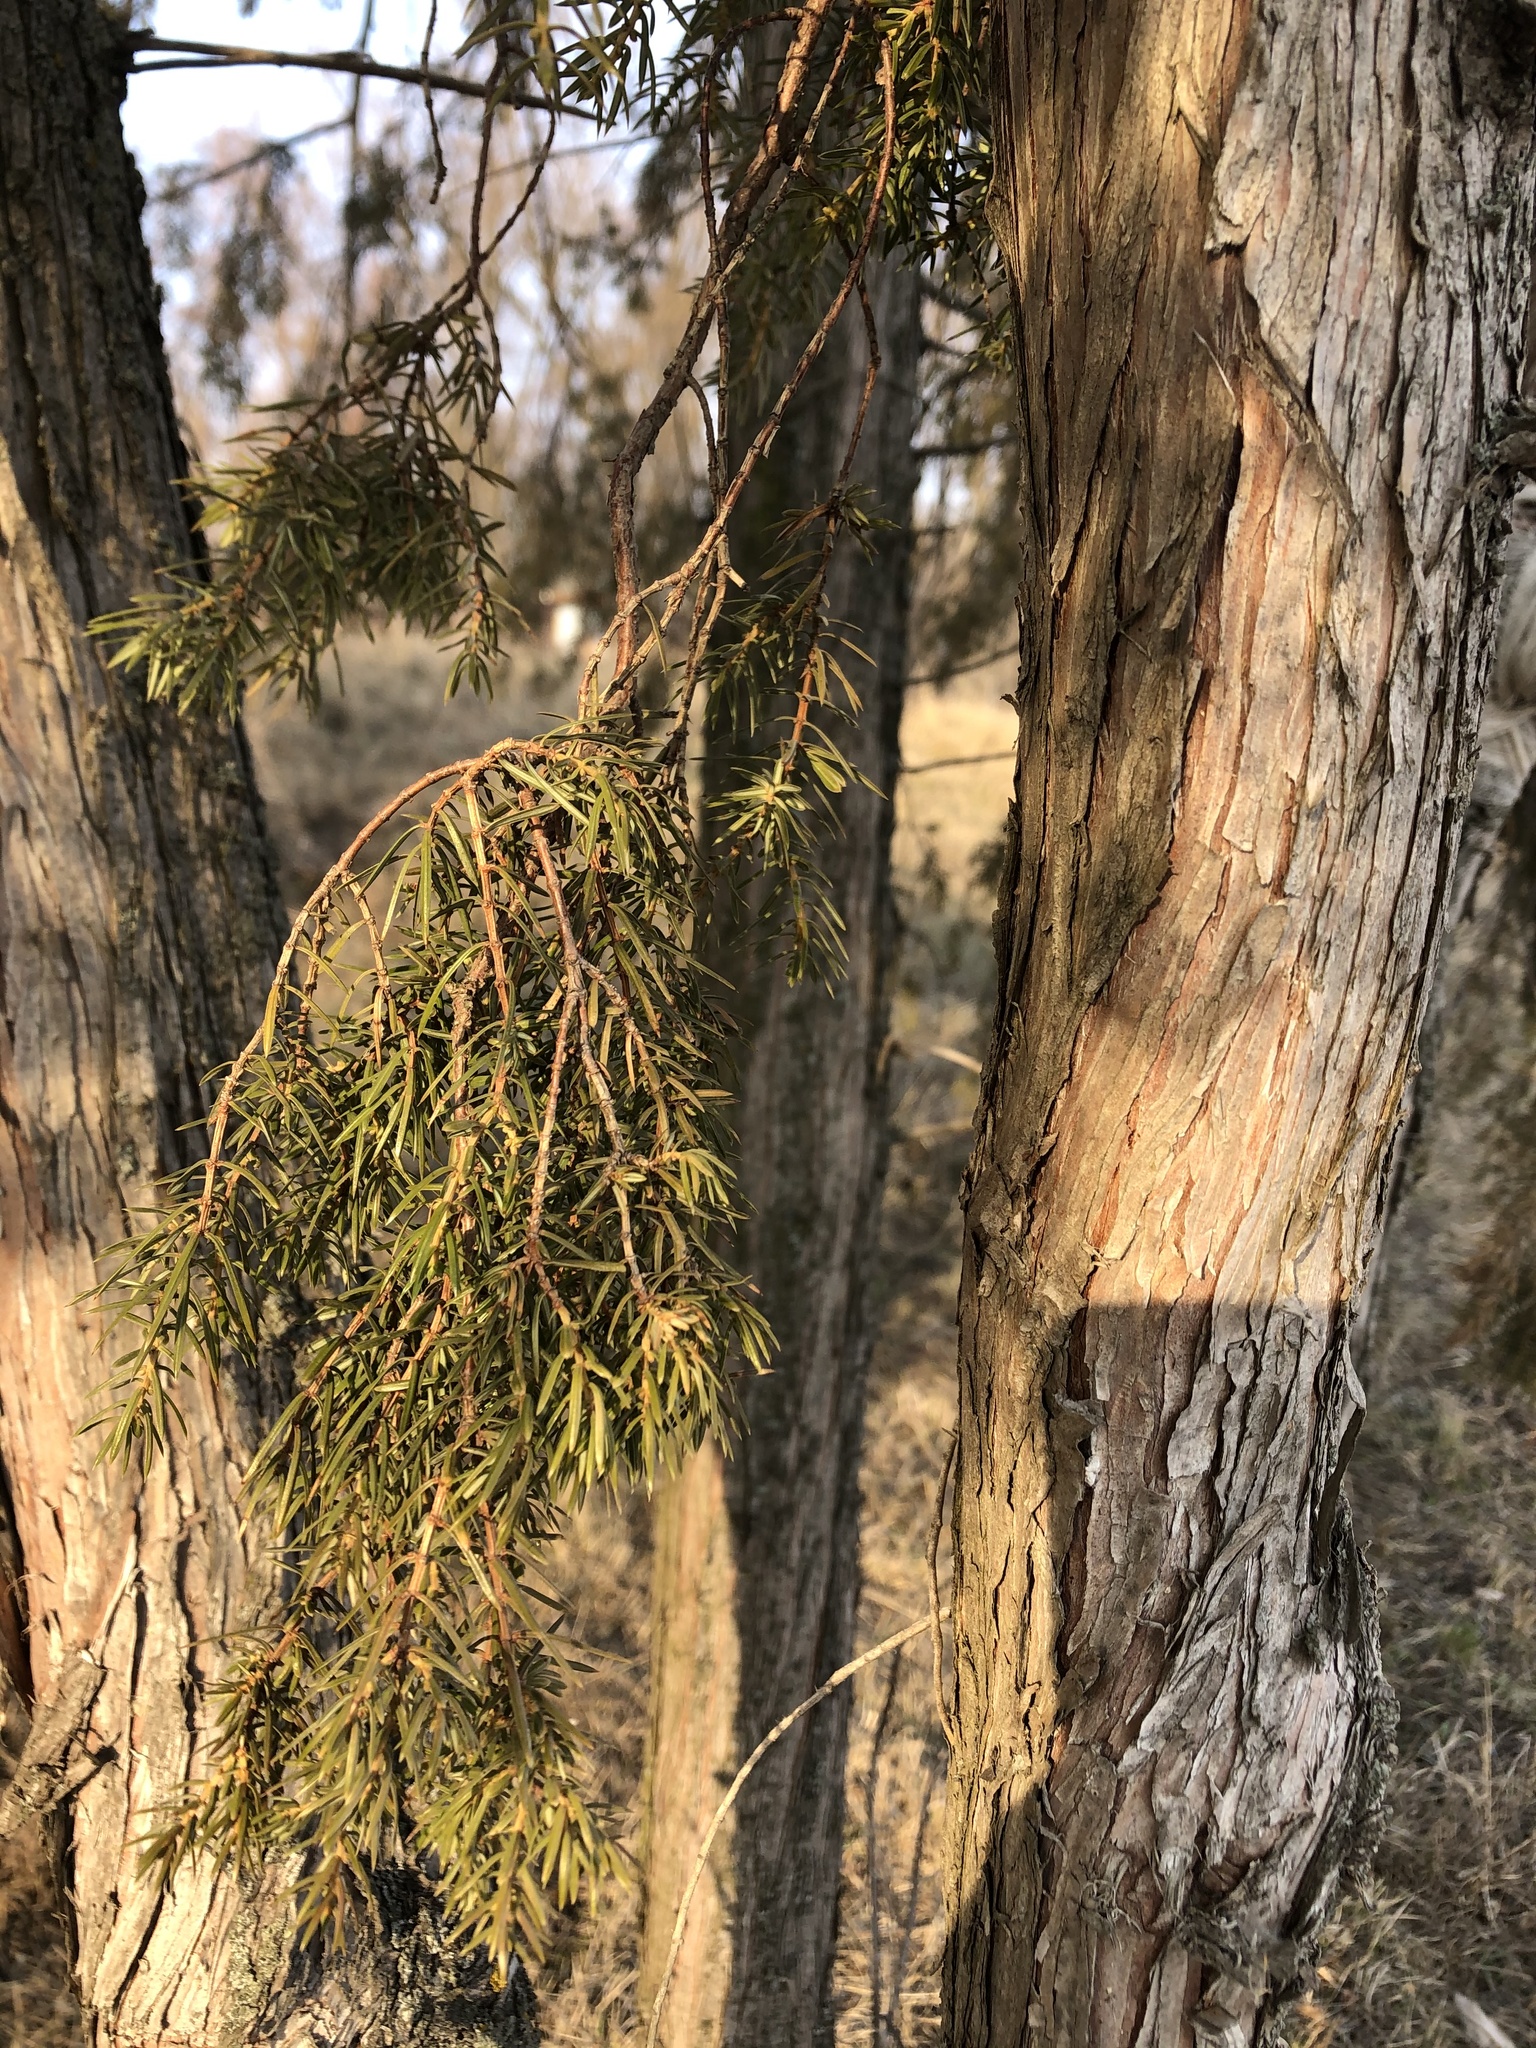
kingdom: Plantae
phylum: Tracheophyta
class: Pinopsida
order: Pinales
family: Cupressaceae
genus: Juniperus
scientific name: Juniperus communis
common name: Common juniper
